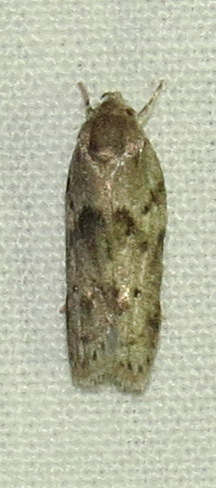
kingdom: Animalia
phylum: Arthropoda
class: Insecta
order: Lepidoptera
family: Depressariidae
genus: Antaeotricha
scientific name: Antaeotricha humilis
